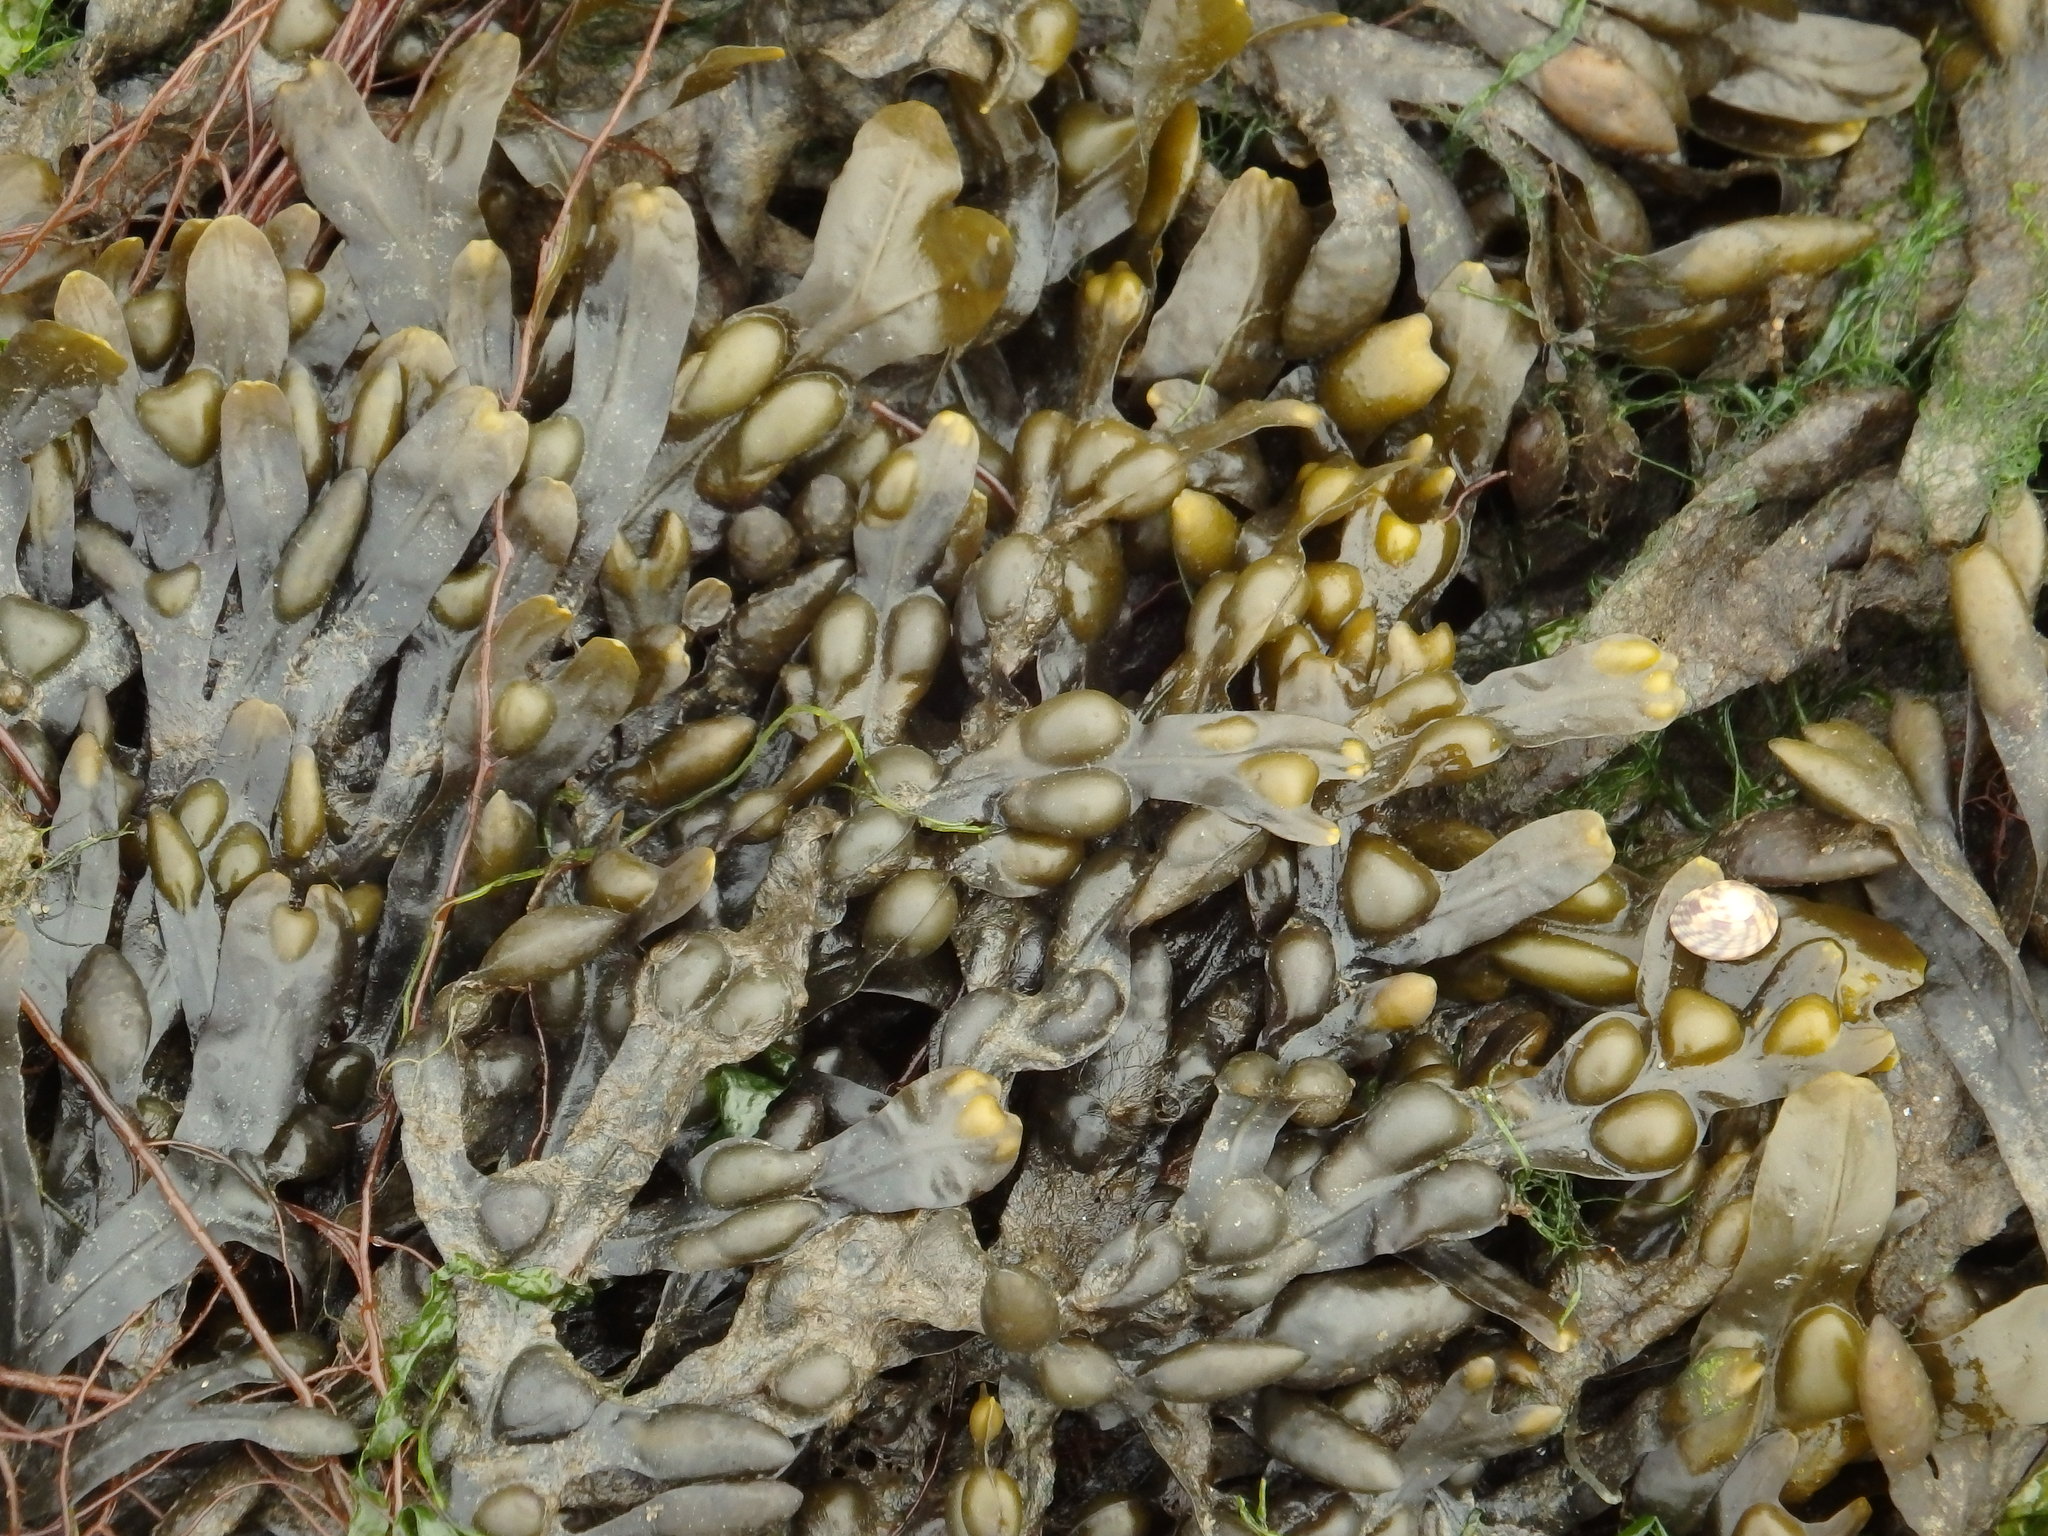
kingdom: Chromista
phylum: Ochrophyta
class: Phaeophyceae
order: Fucales
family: Fucaceae
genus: Fucus
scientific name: Fucus vesiculosus
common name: Bladder wrack
